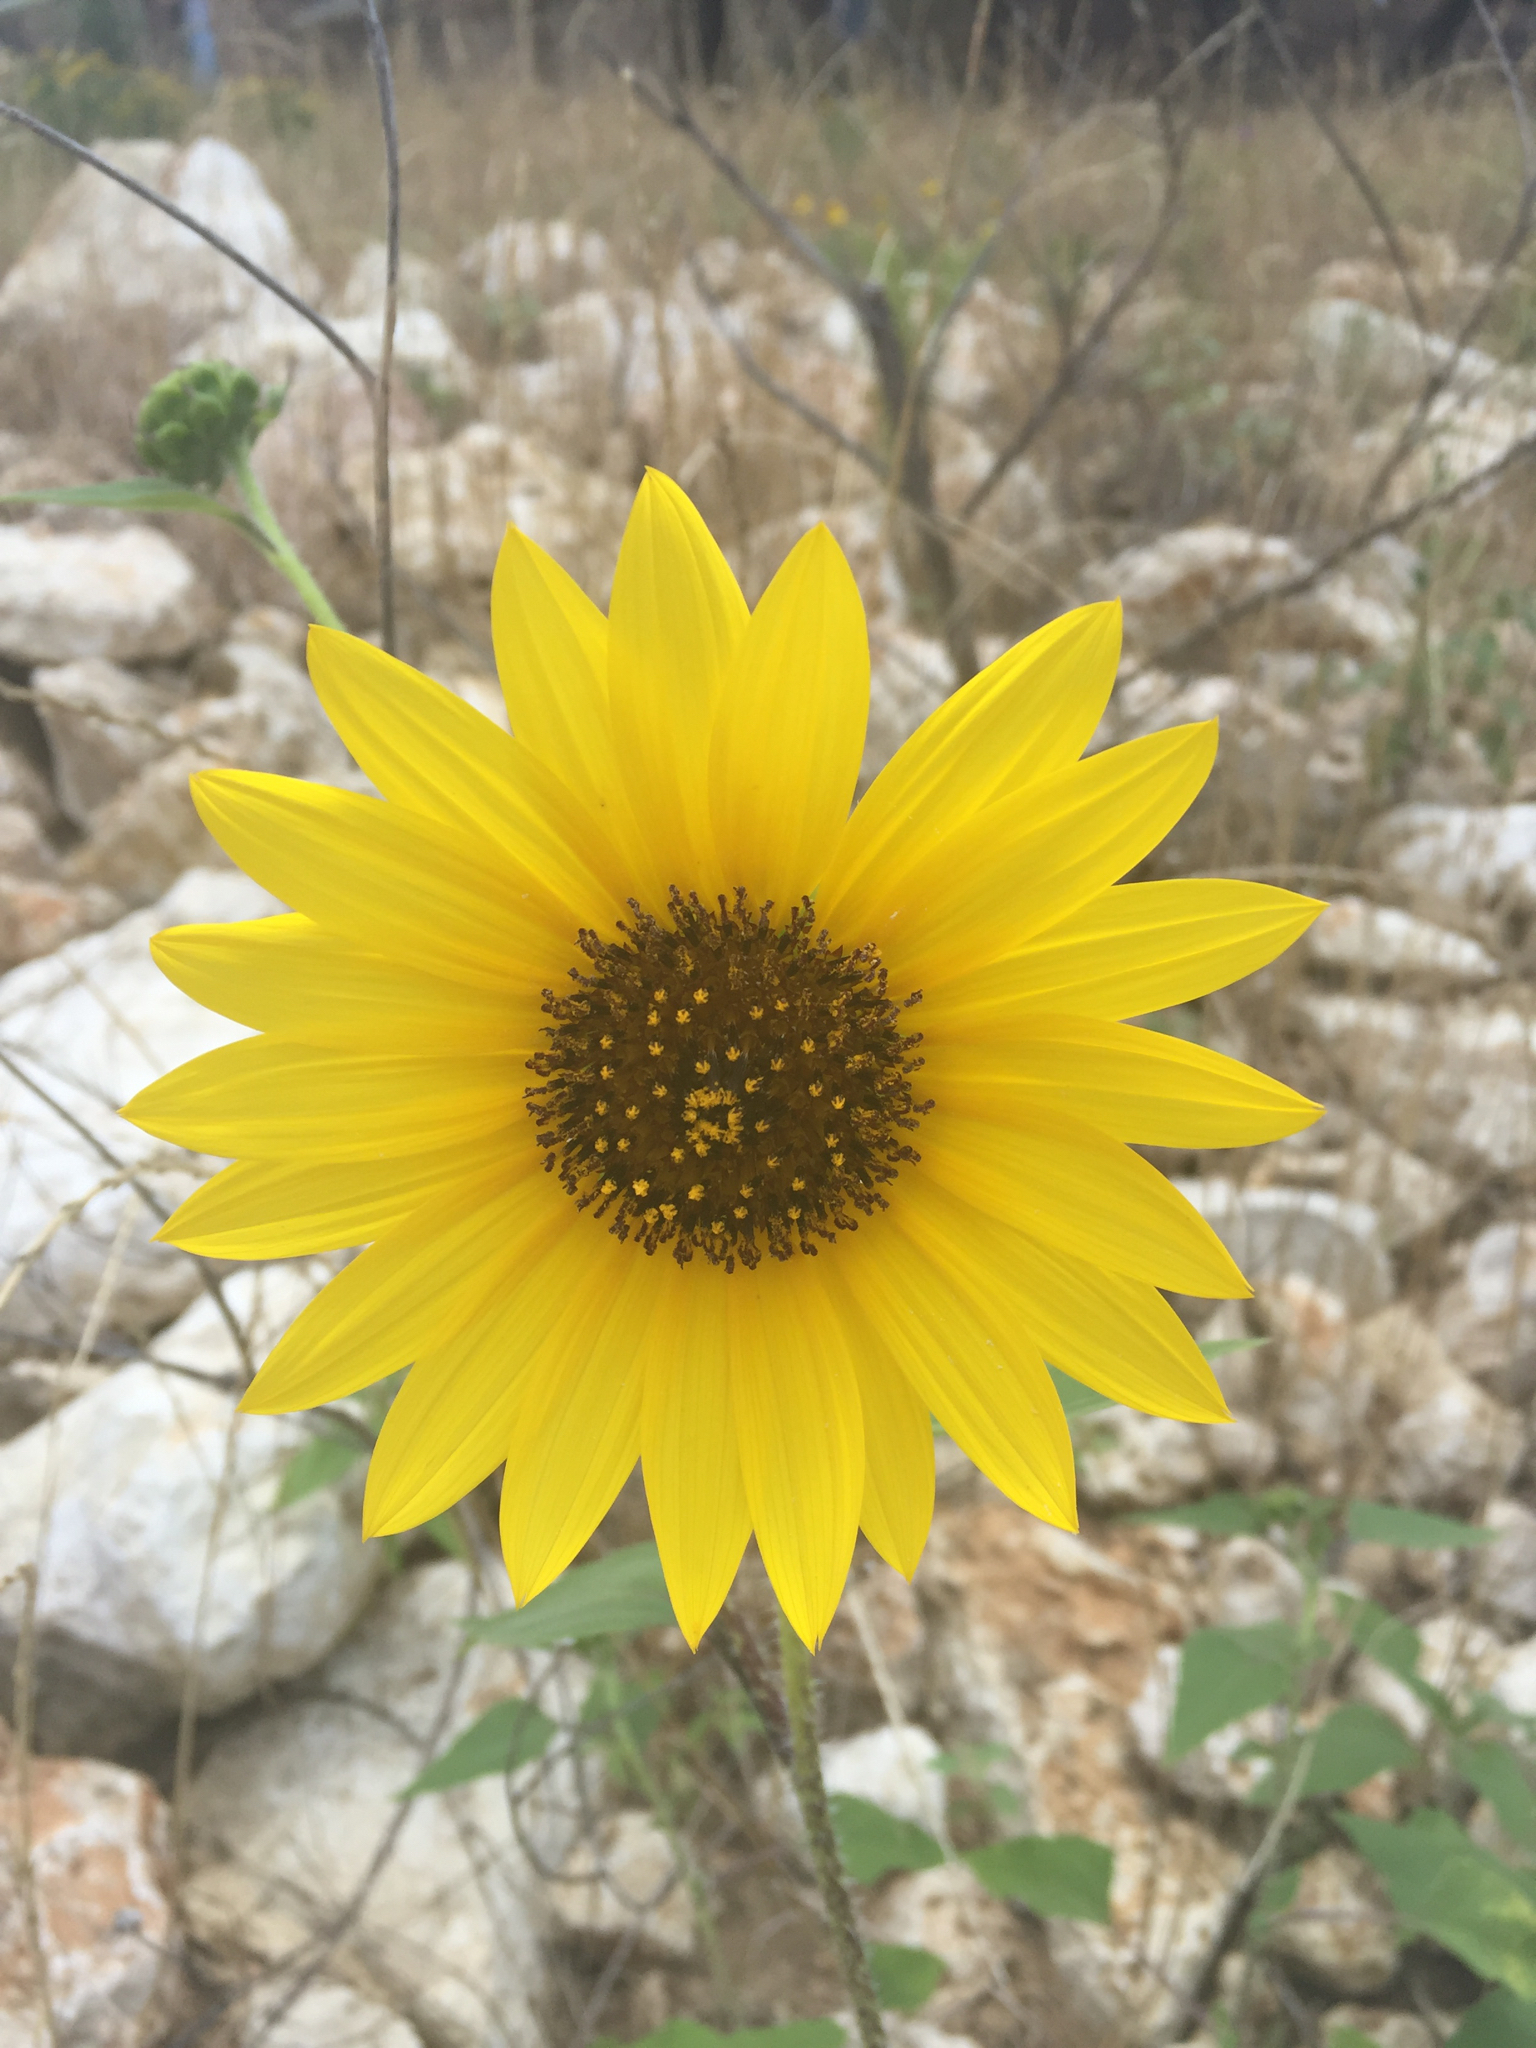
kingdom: Plantae
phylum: Tracheophyta
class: Magnoliopsida
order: Asterales
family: Asteraceae
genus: Helianthus
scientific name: Helianthus annuus
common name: Sunflower
